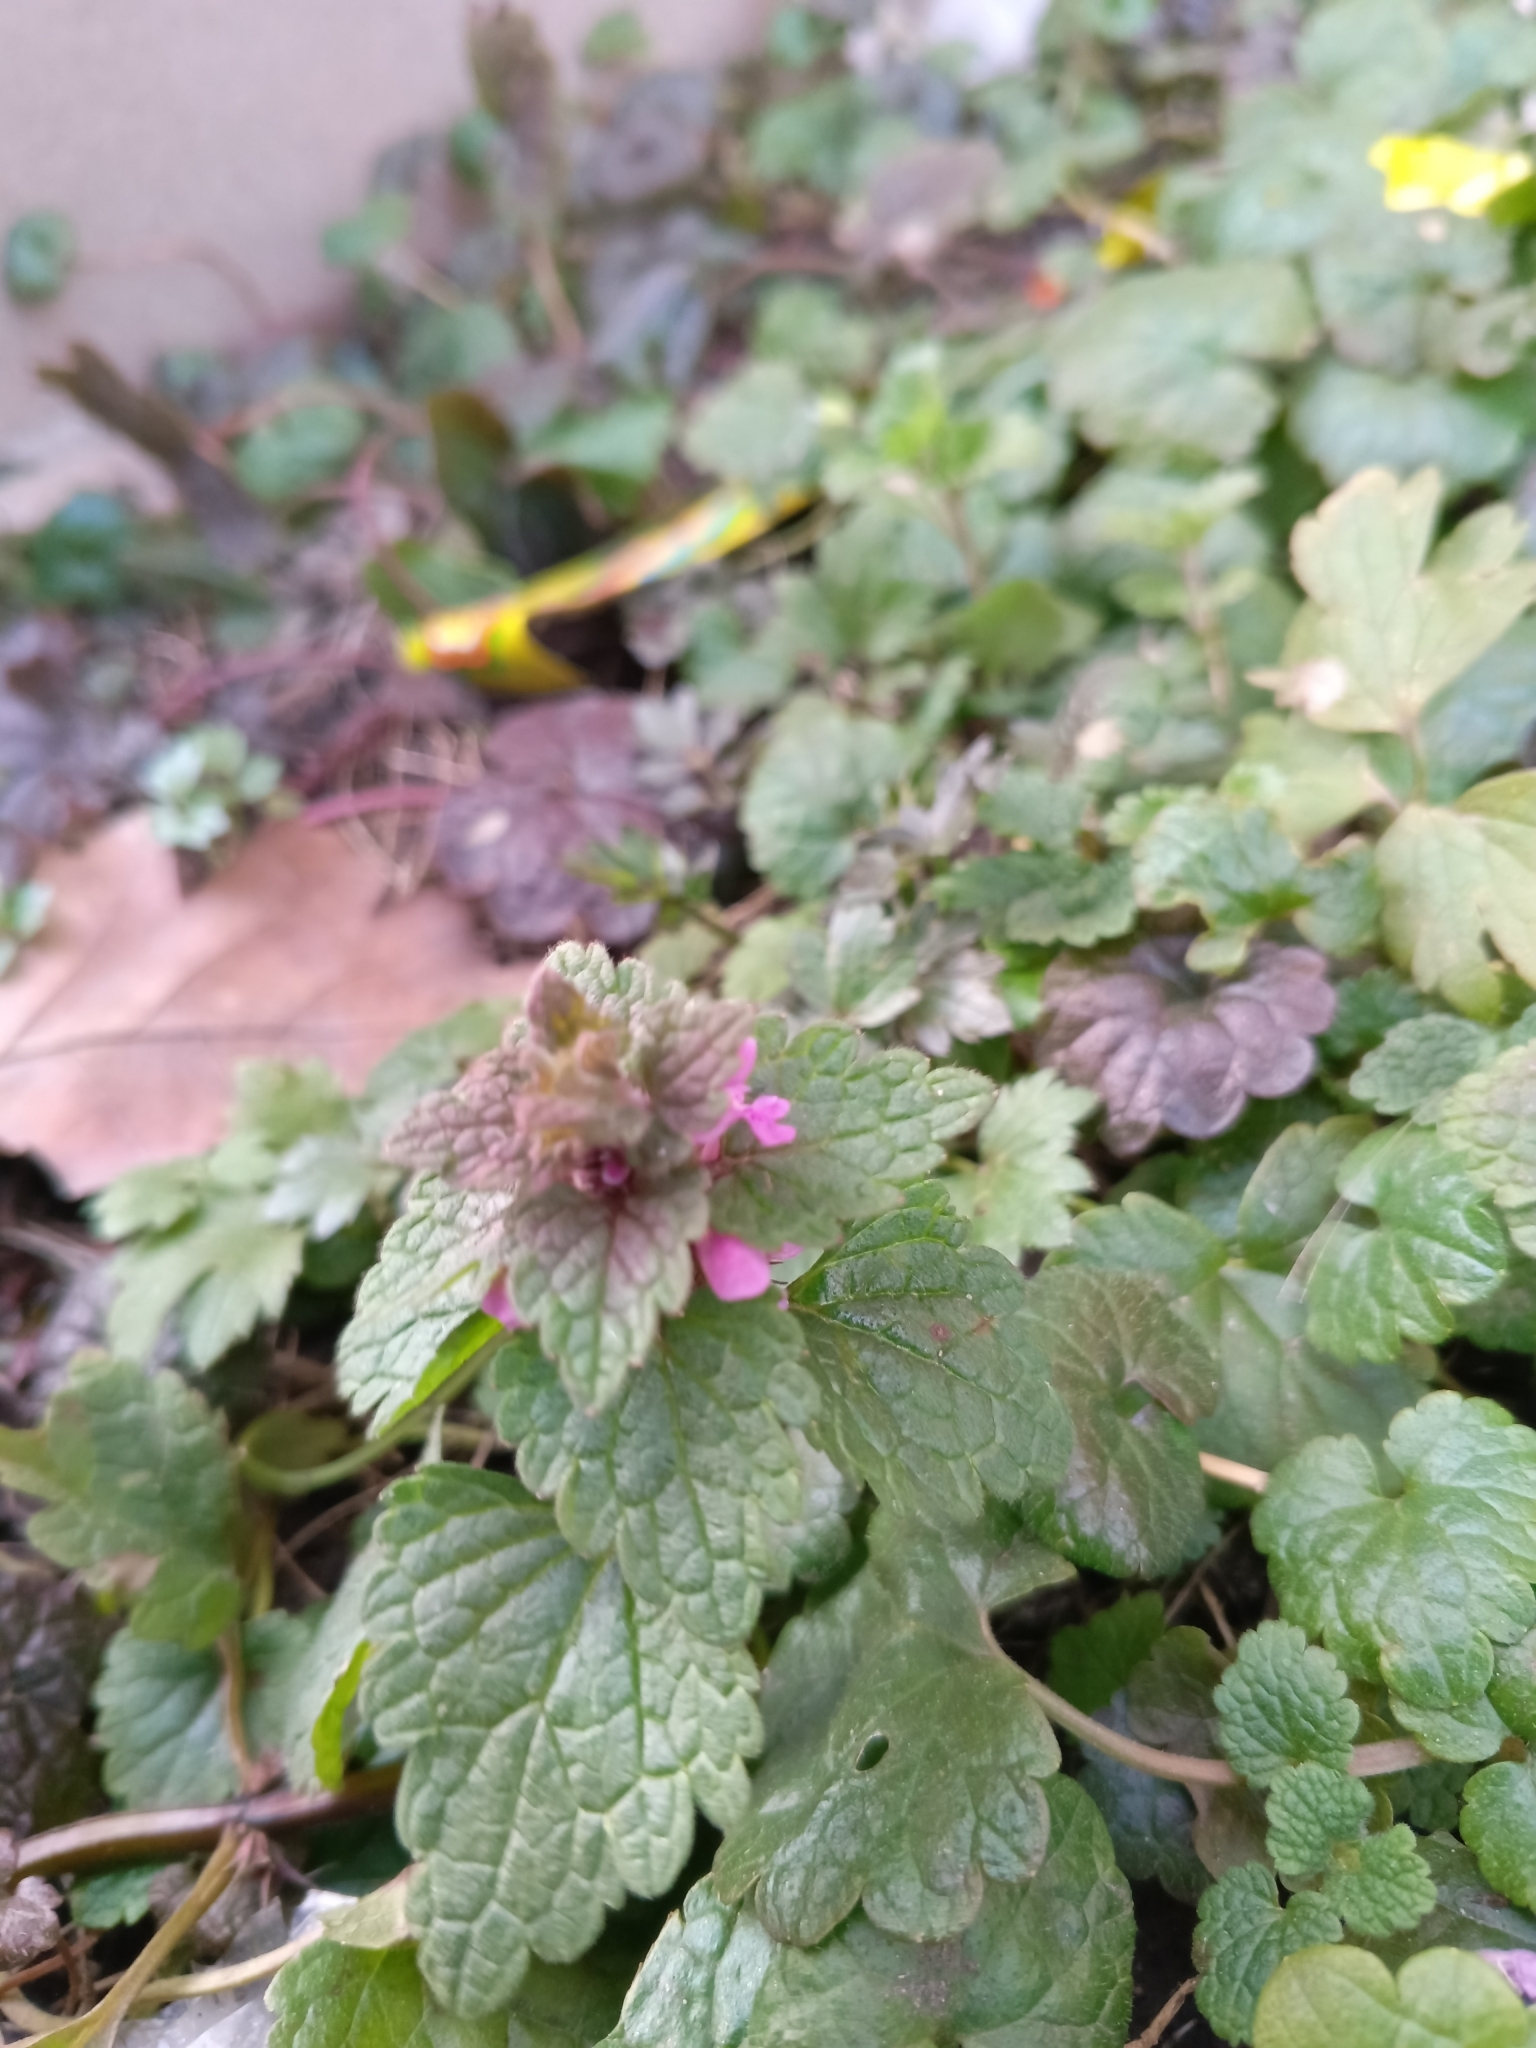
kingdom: Plantae
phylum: Tracheophyta
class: Magnoliopsida
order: Lamiales
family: Lamiaceae
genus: Lamium
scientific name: Lamium purpureum
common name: Red dead-nettle
